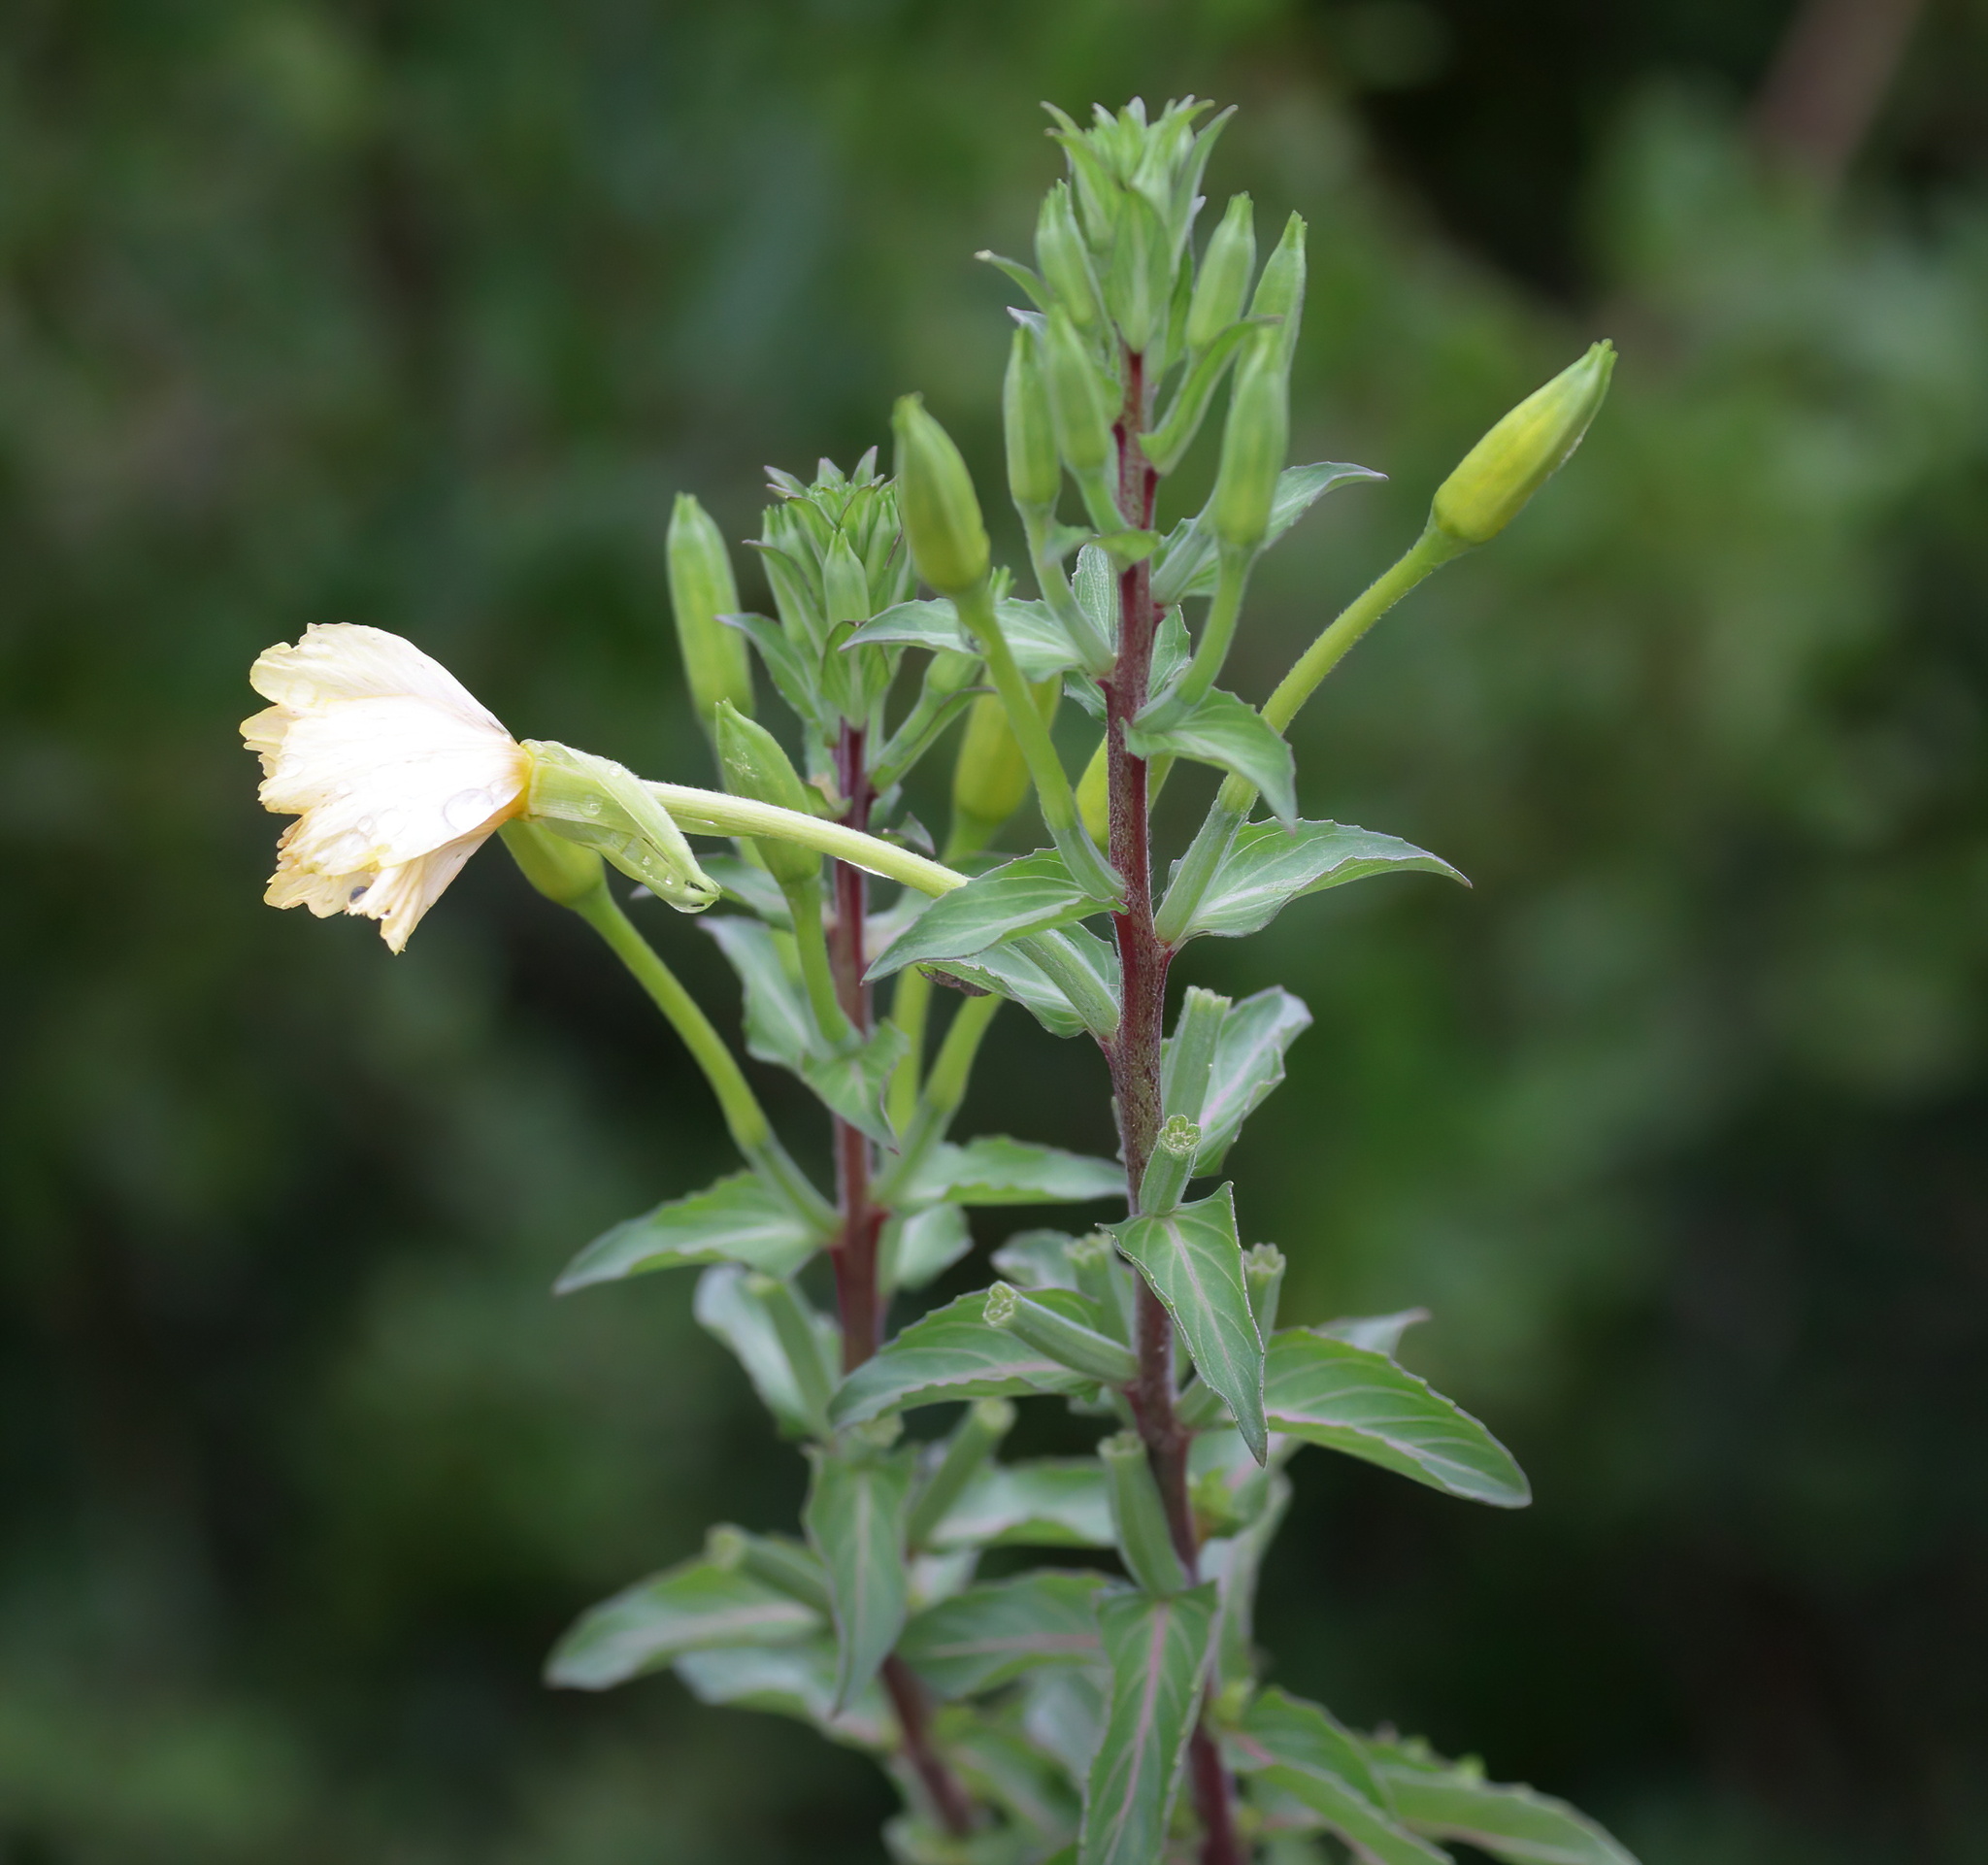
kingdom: Plantae
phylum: Tracheophyta
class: Magnoliopsida
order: Myrtales
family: Onagraceae
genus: Oenothera
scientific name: Oenothera biennis
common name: Common evening-primrose
